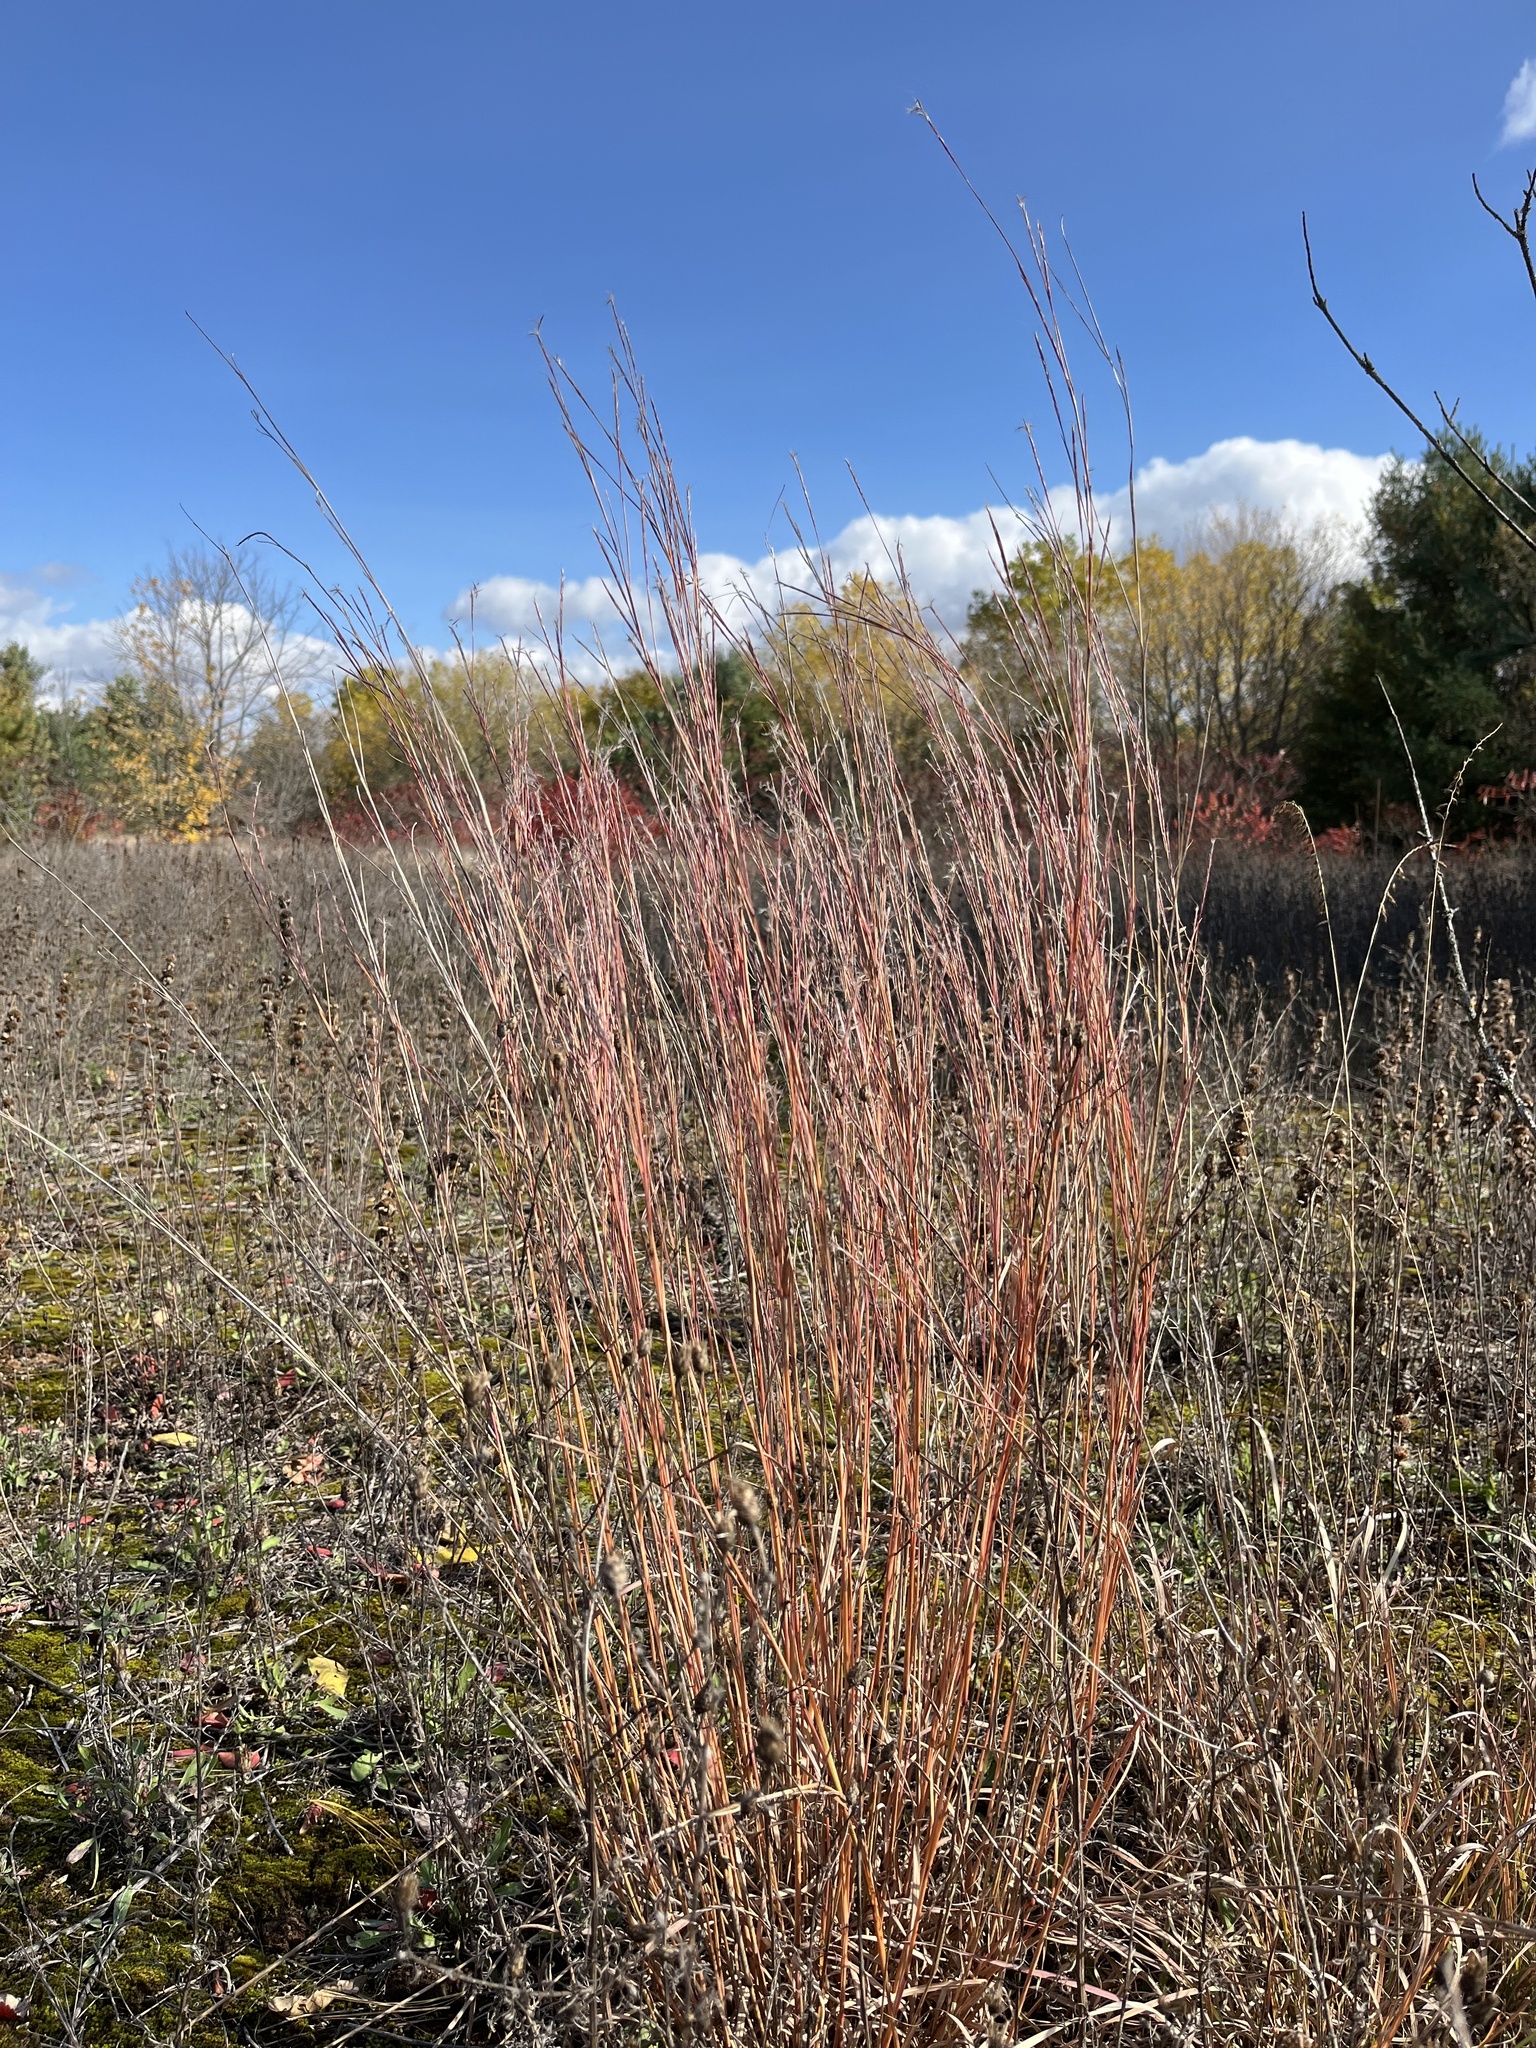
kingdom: Plantae
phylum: Tracheophyta
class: Liliopsida
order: Poales
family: Poaceae
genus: Schizachyrium
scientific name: Schizachyrium scoparium
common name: Little bluestem
